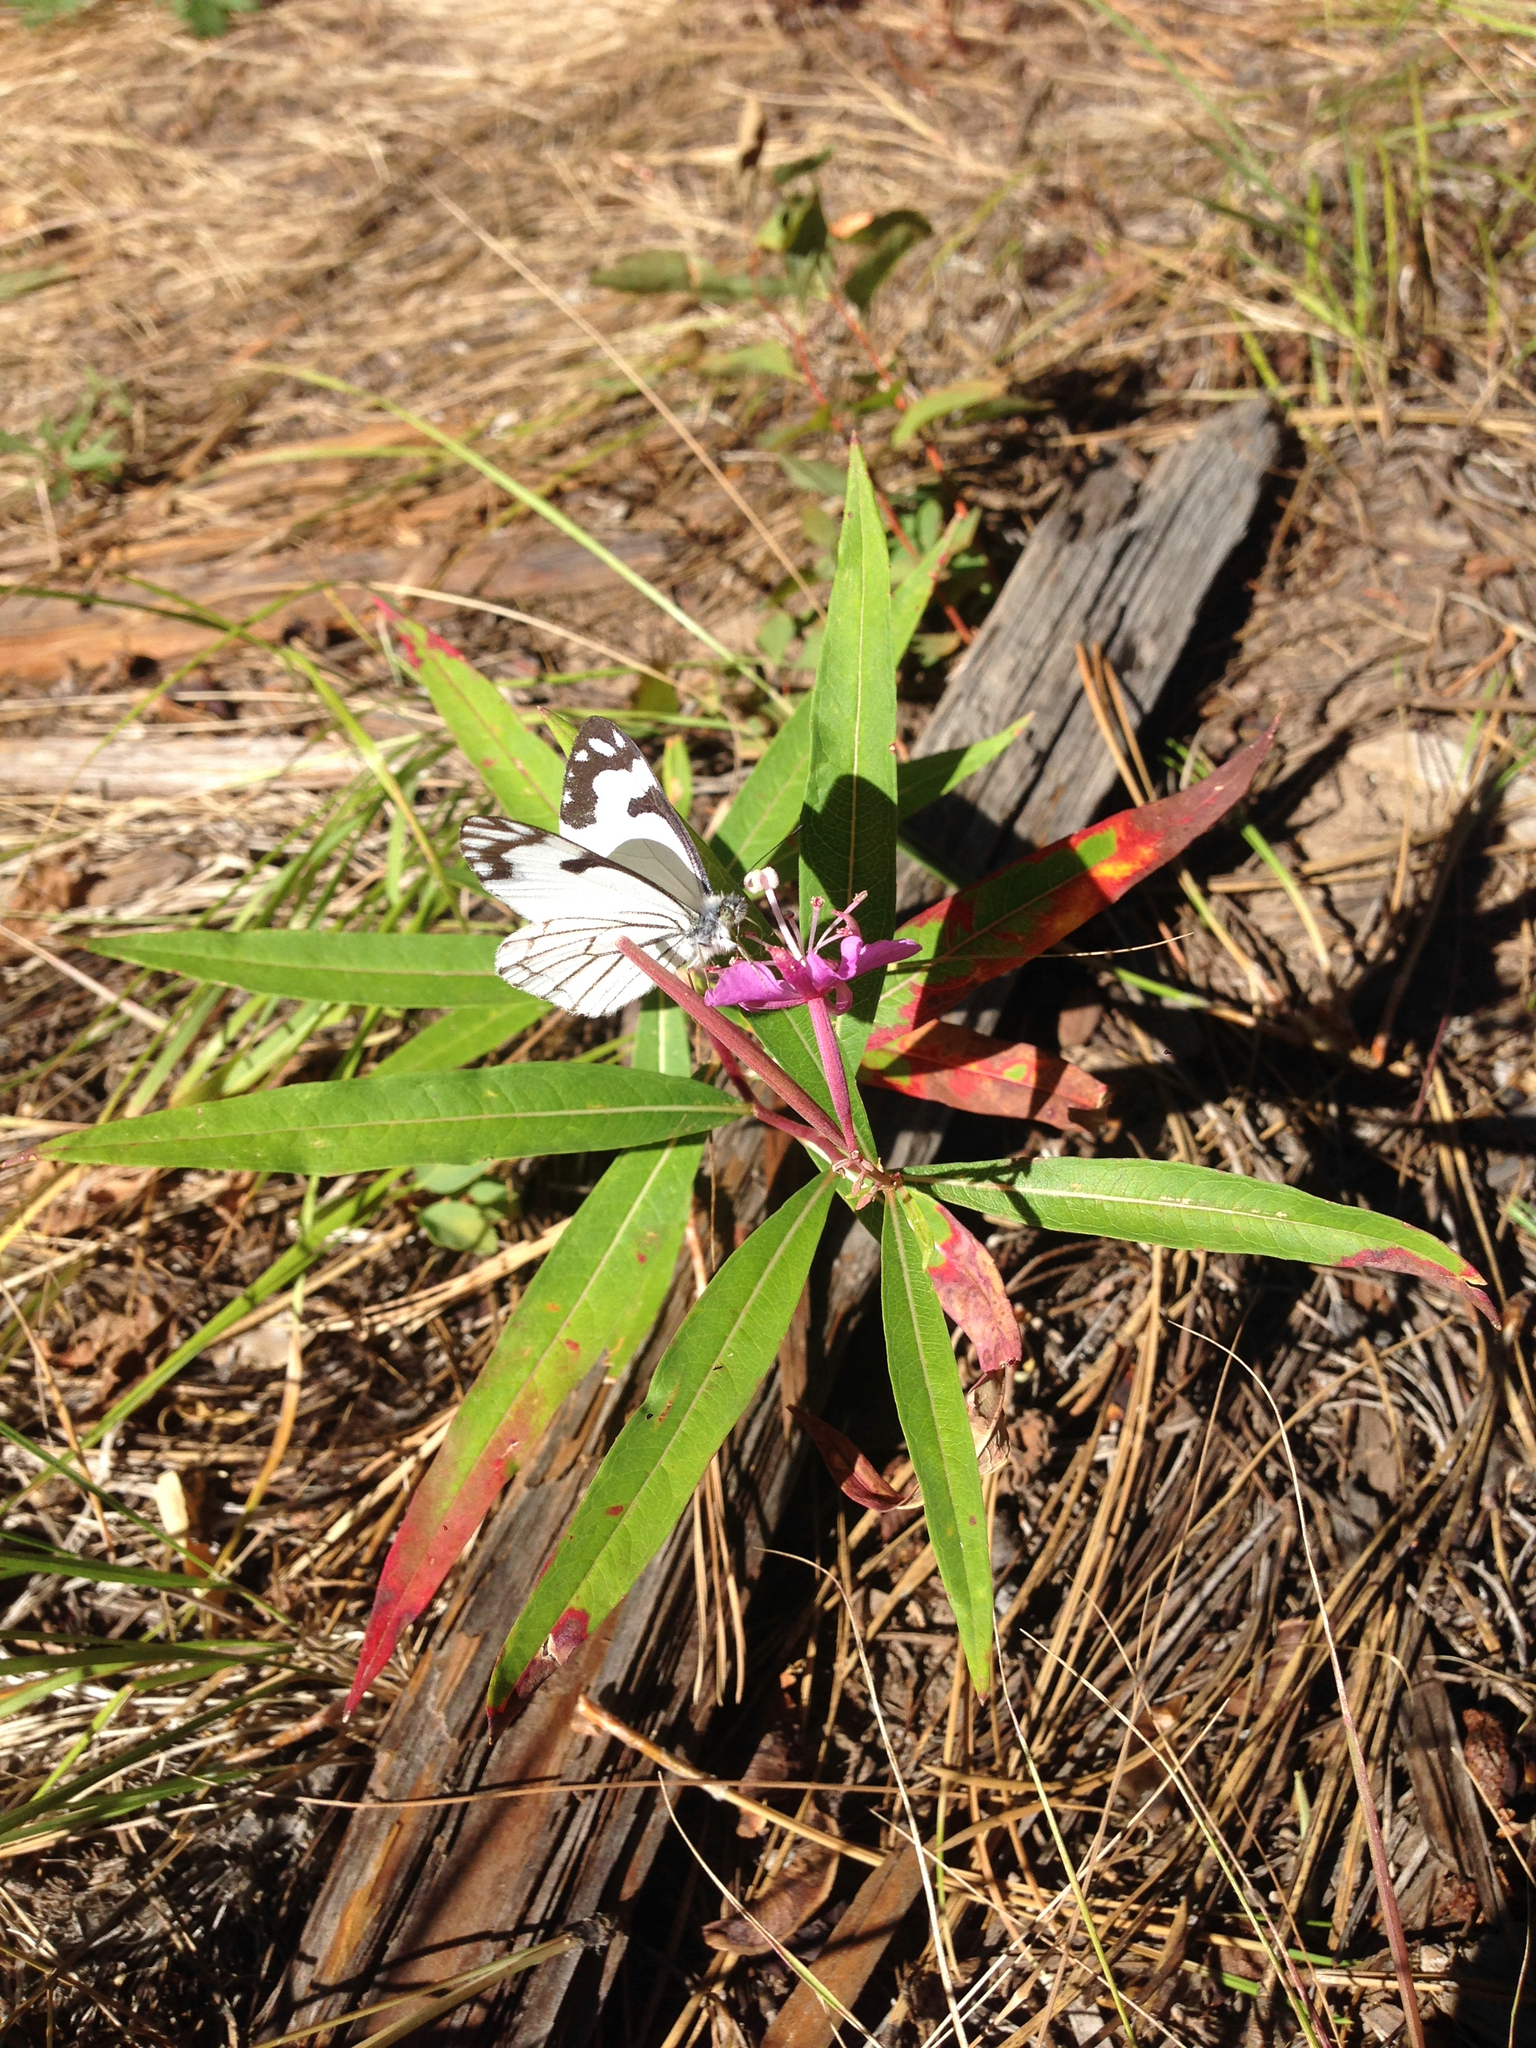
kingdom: Animalia
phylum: Arthropoda
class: Insecta
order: Lepidoptera
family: Pieridae
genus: Neophasia
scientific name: Neophasia menapia
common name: Pine white
